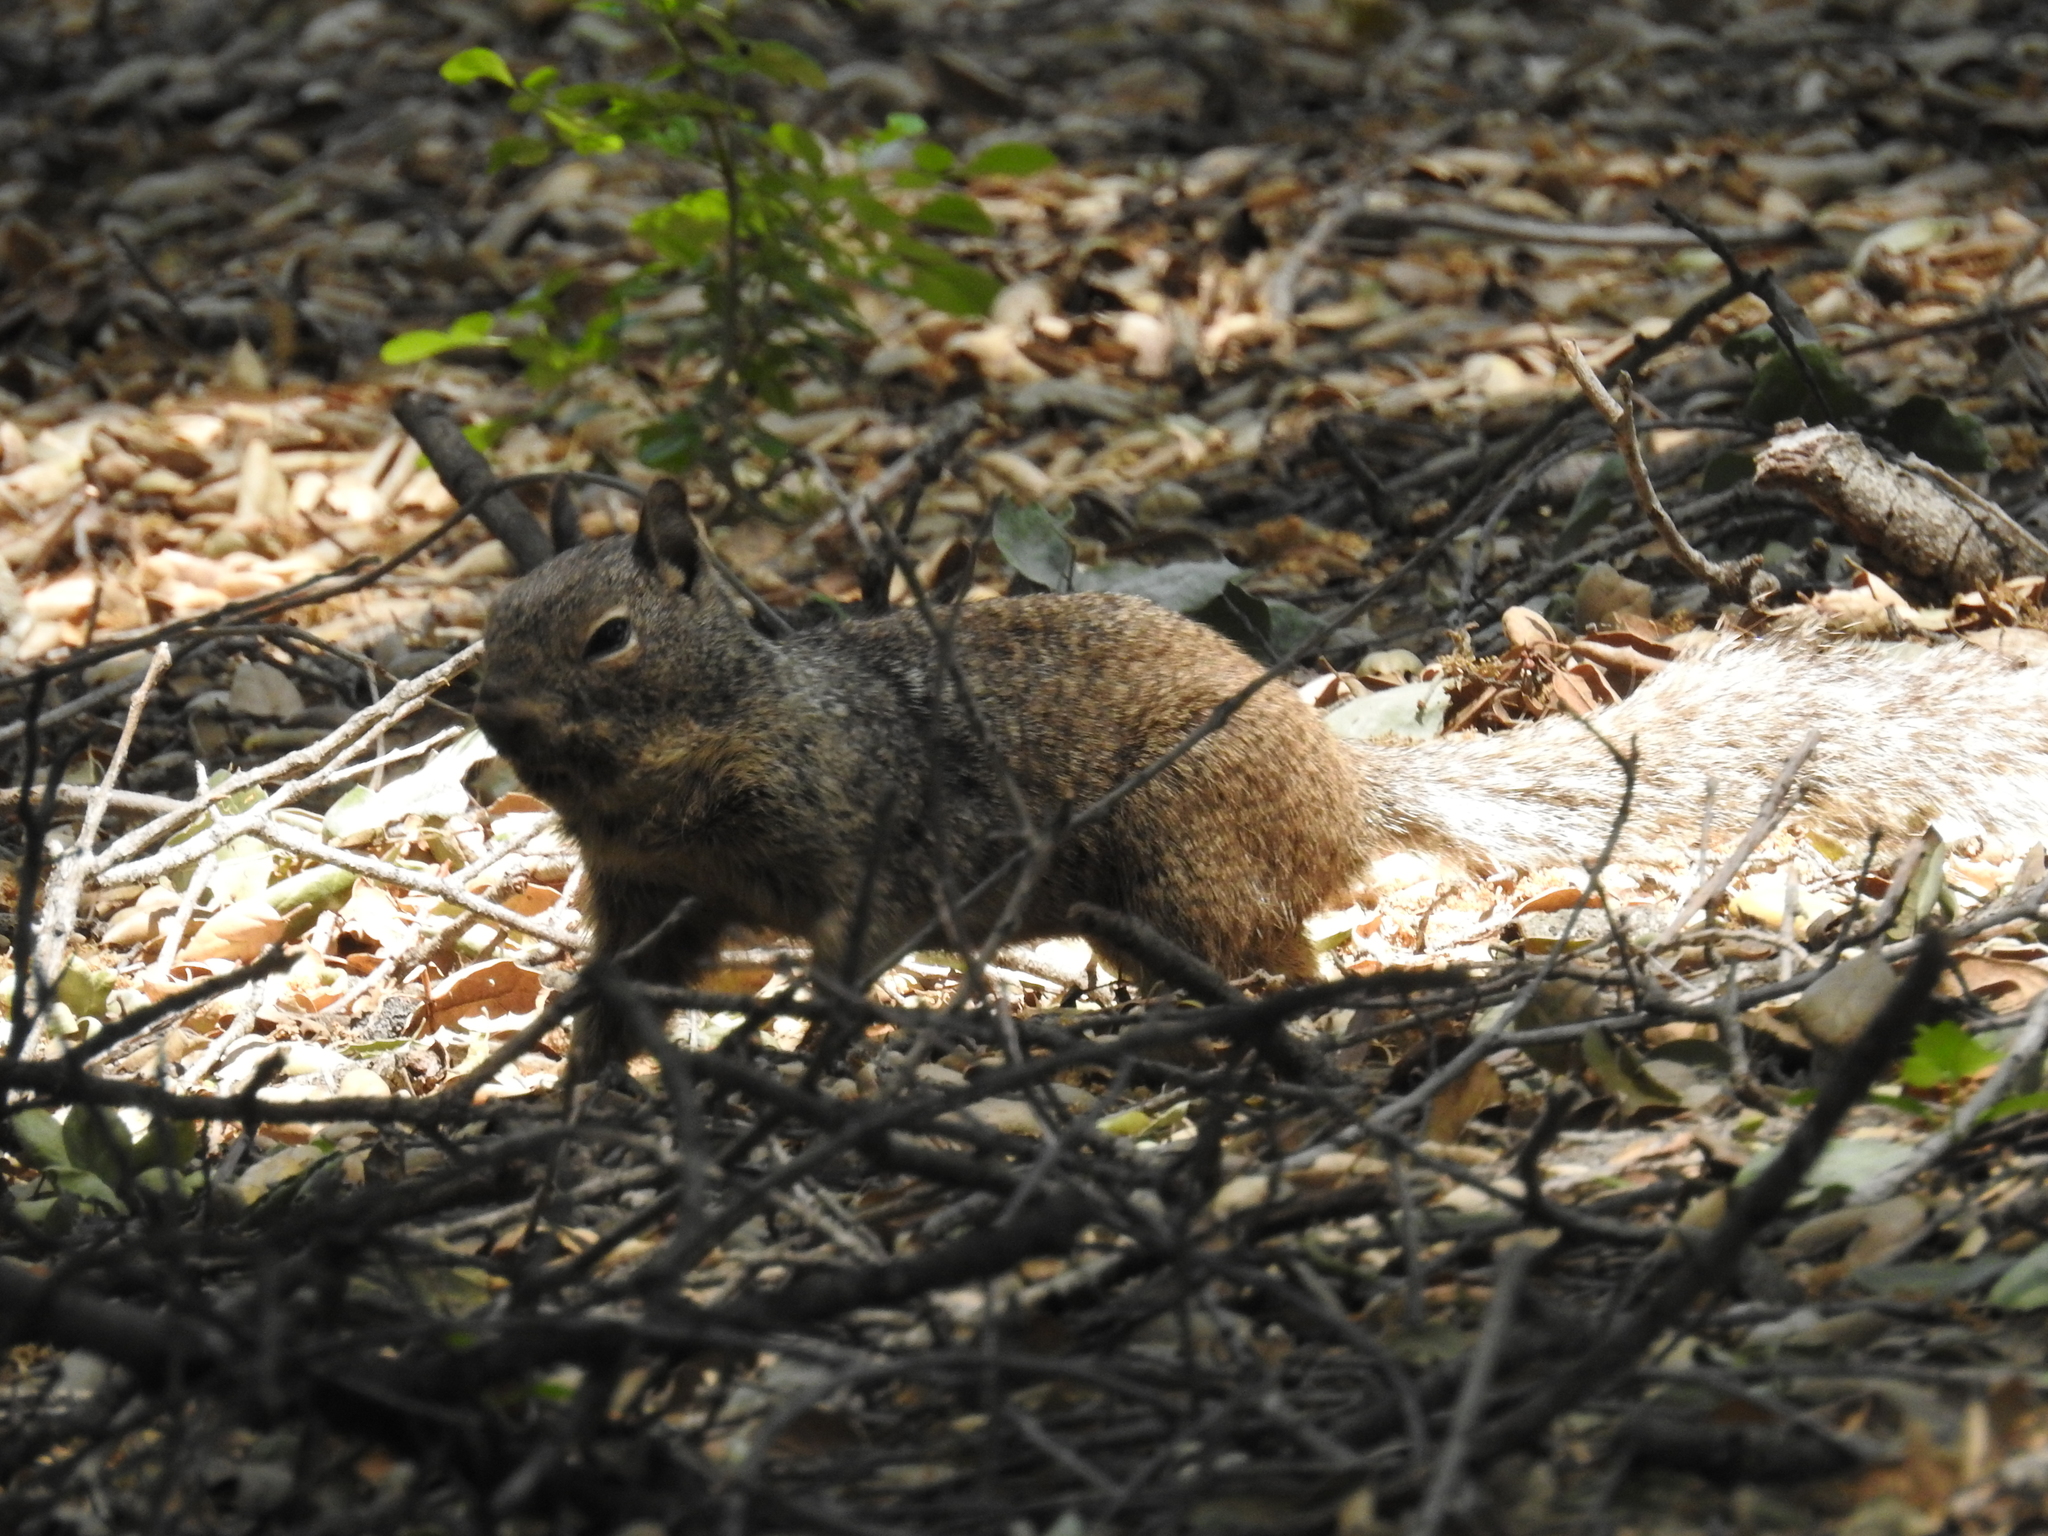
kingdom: Animalia
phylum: Chordata
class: Mammalia
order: Rodentia
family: Sciuridae
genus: Otospermophilus
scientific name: Otospermophilus beecheyi
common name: California ground squirrel
